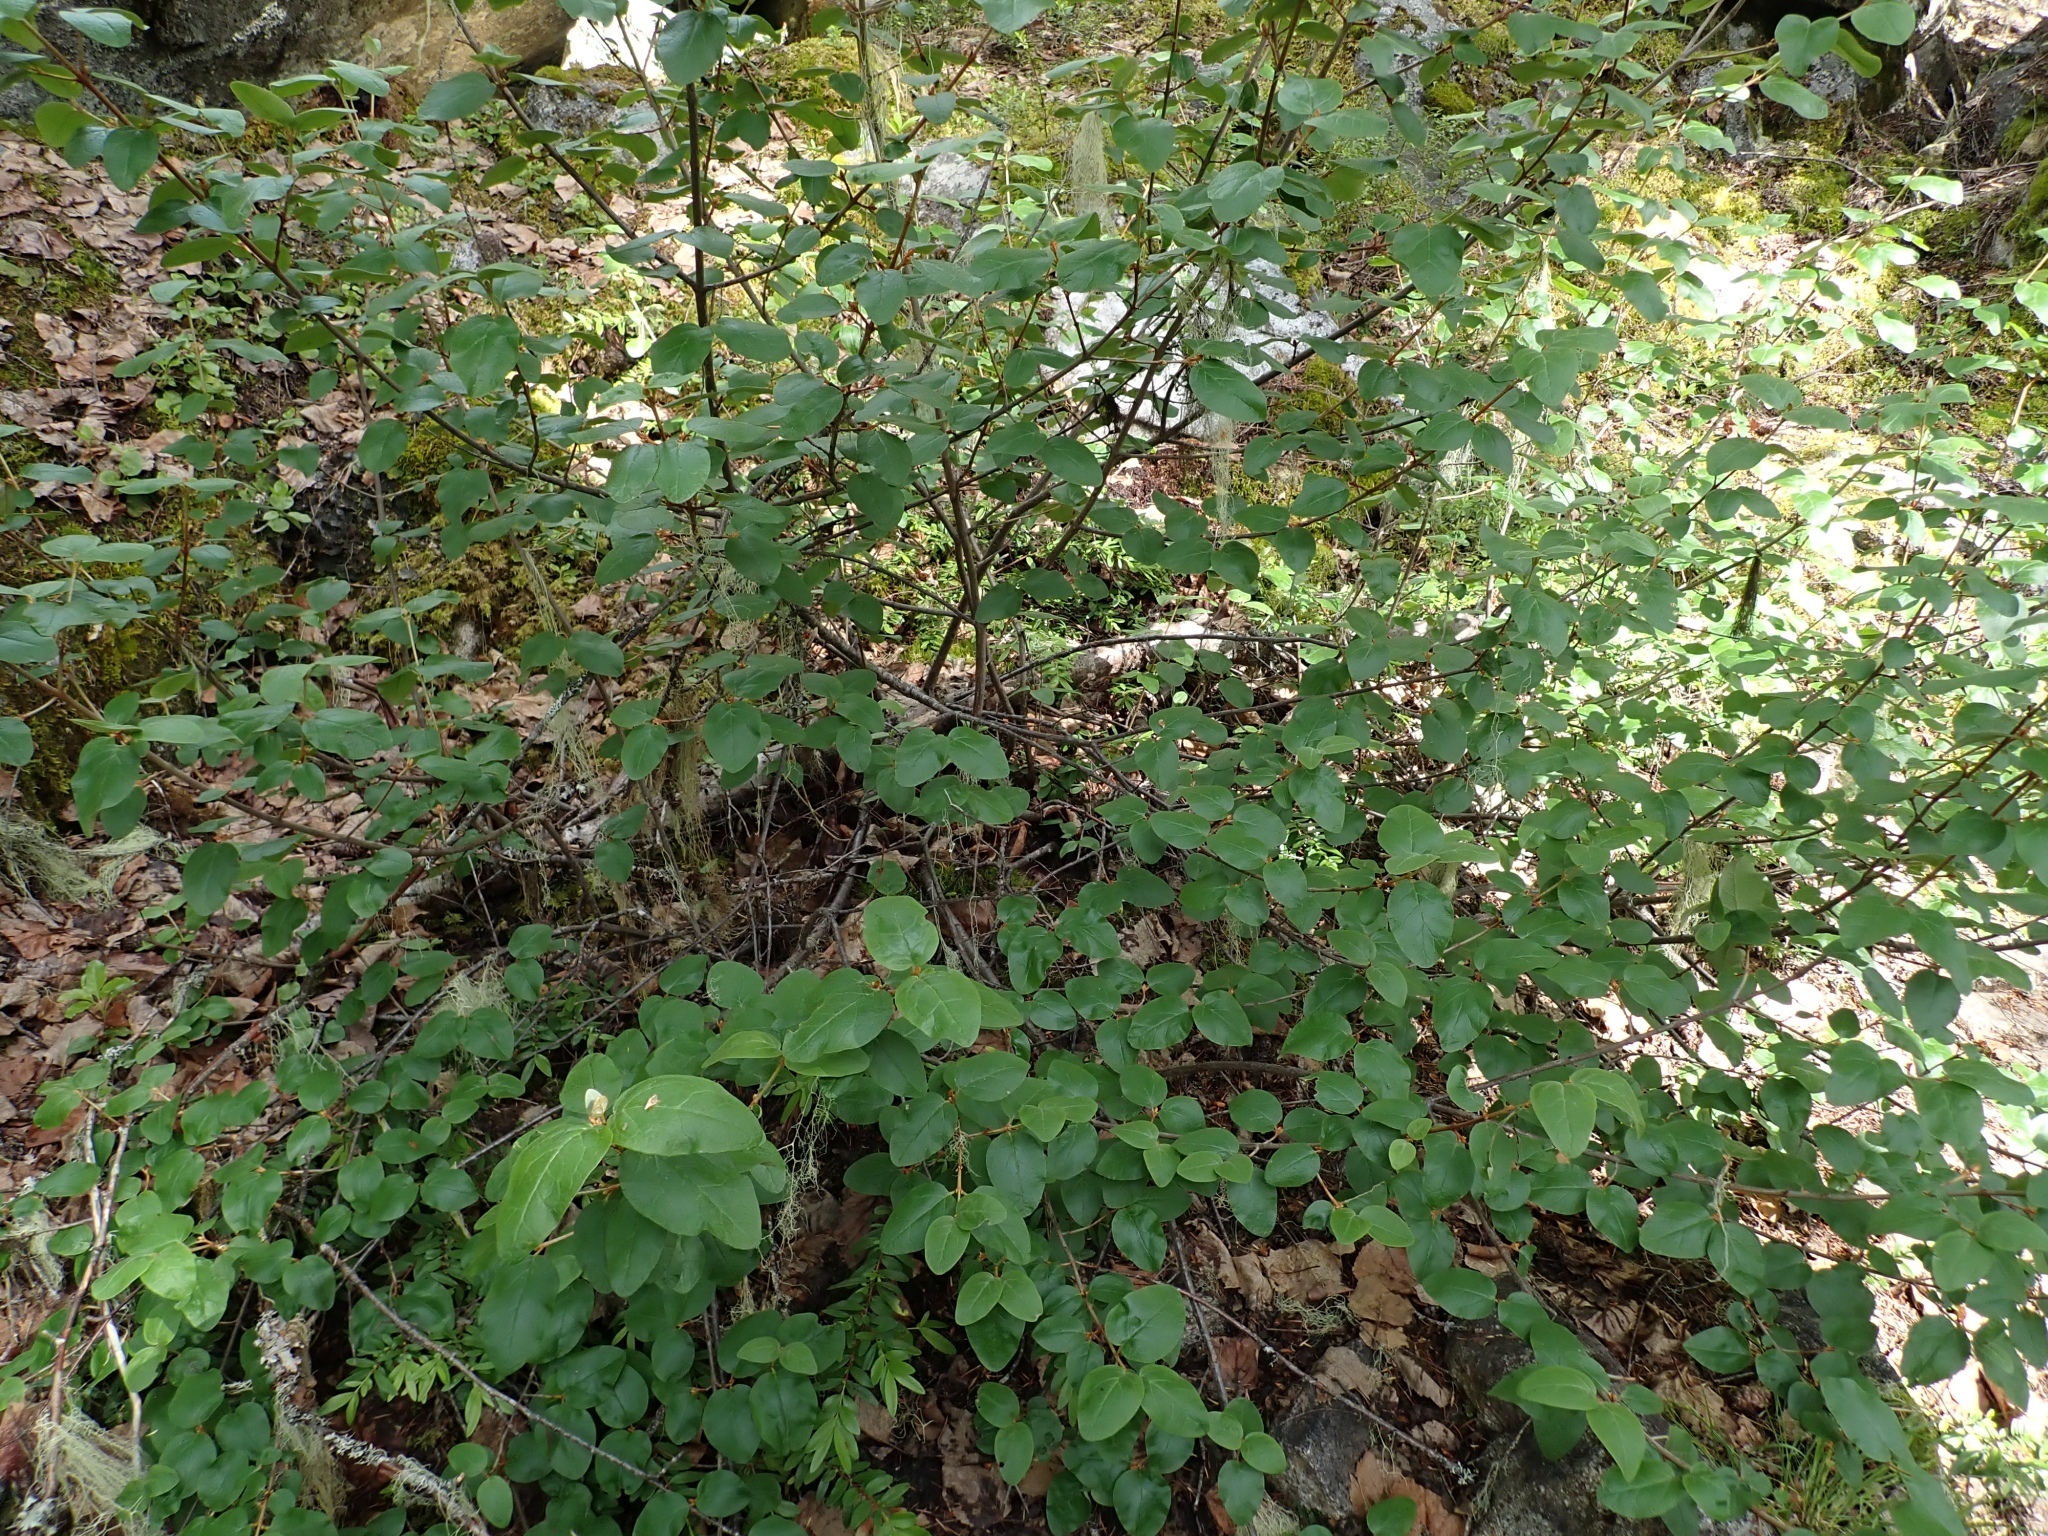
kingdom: Plantae
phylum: Tracheophyta
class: Magnoliopsida
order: Rosales
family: Elaeagnaceae
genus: Shepherdia
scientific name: Shepherdia canadensis
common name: Soapberry
